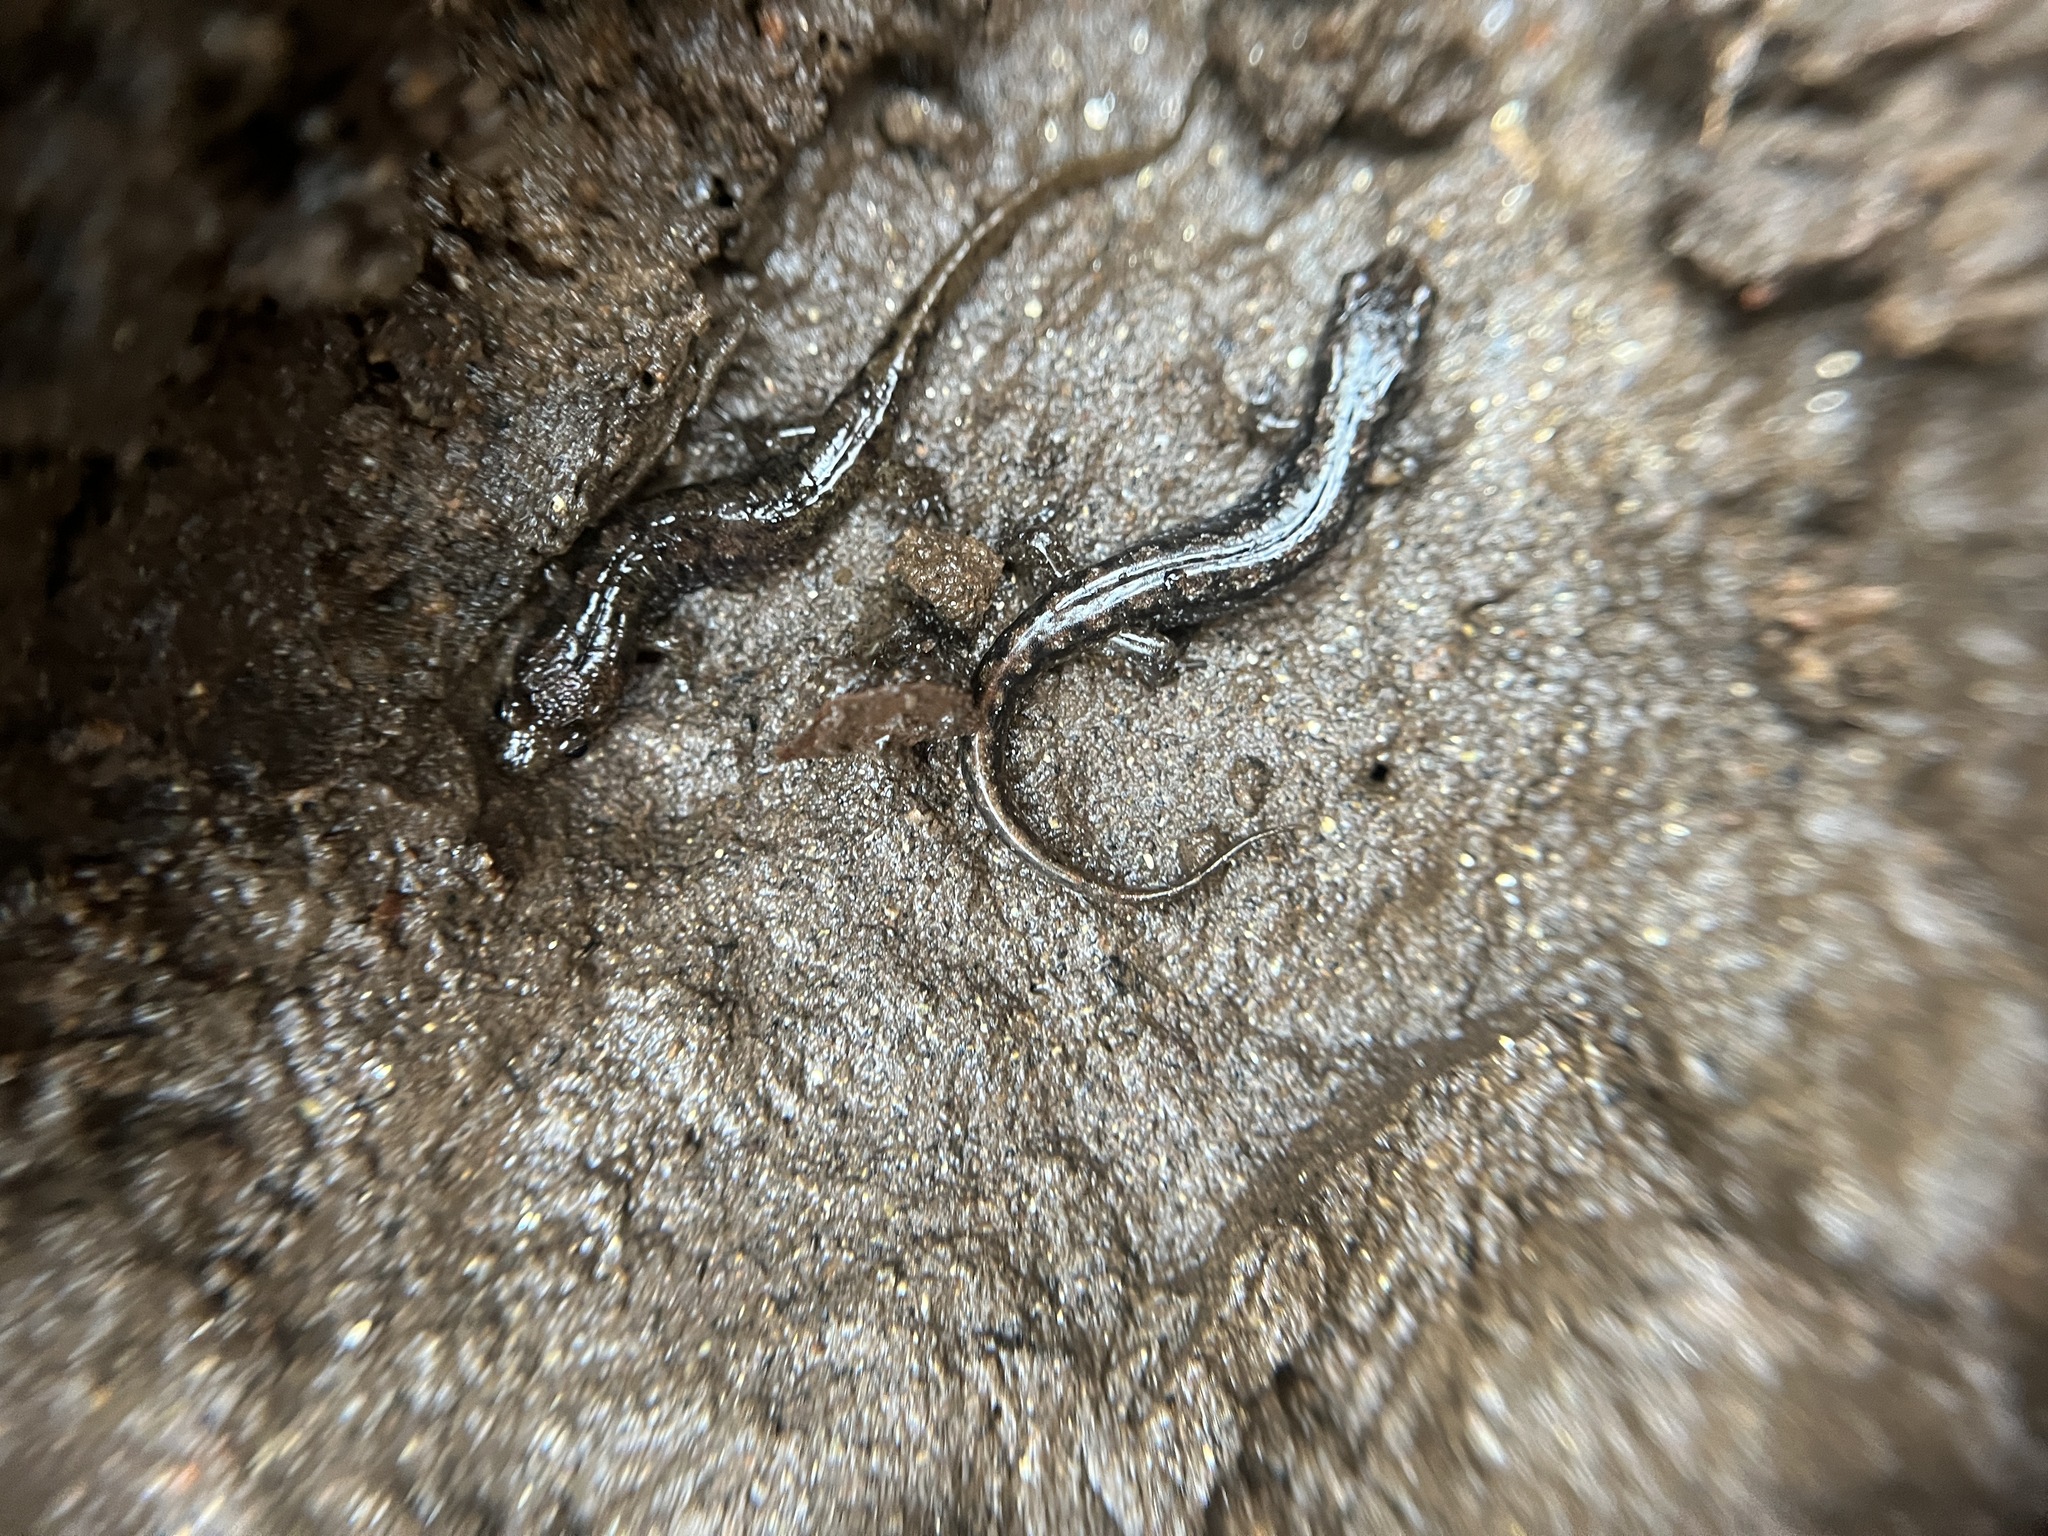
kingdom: Animalia
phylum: Chordata
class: Amphibia
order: Caudata
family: Plethodontidae
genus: Desmognathus
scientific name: Desmognathus planiceps
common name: Flat-headed salamander
